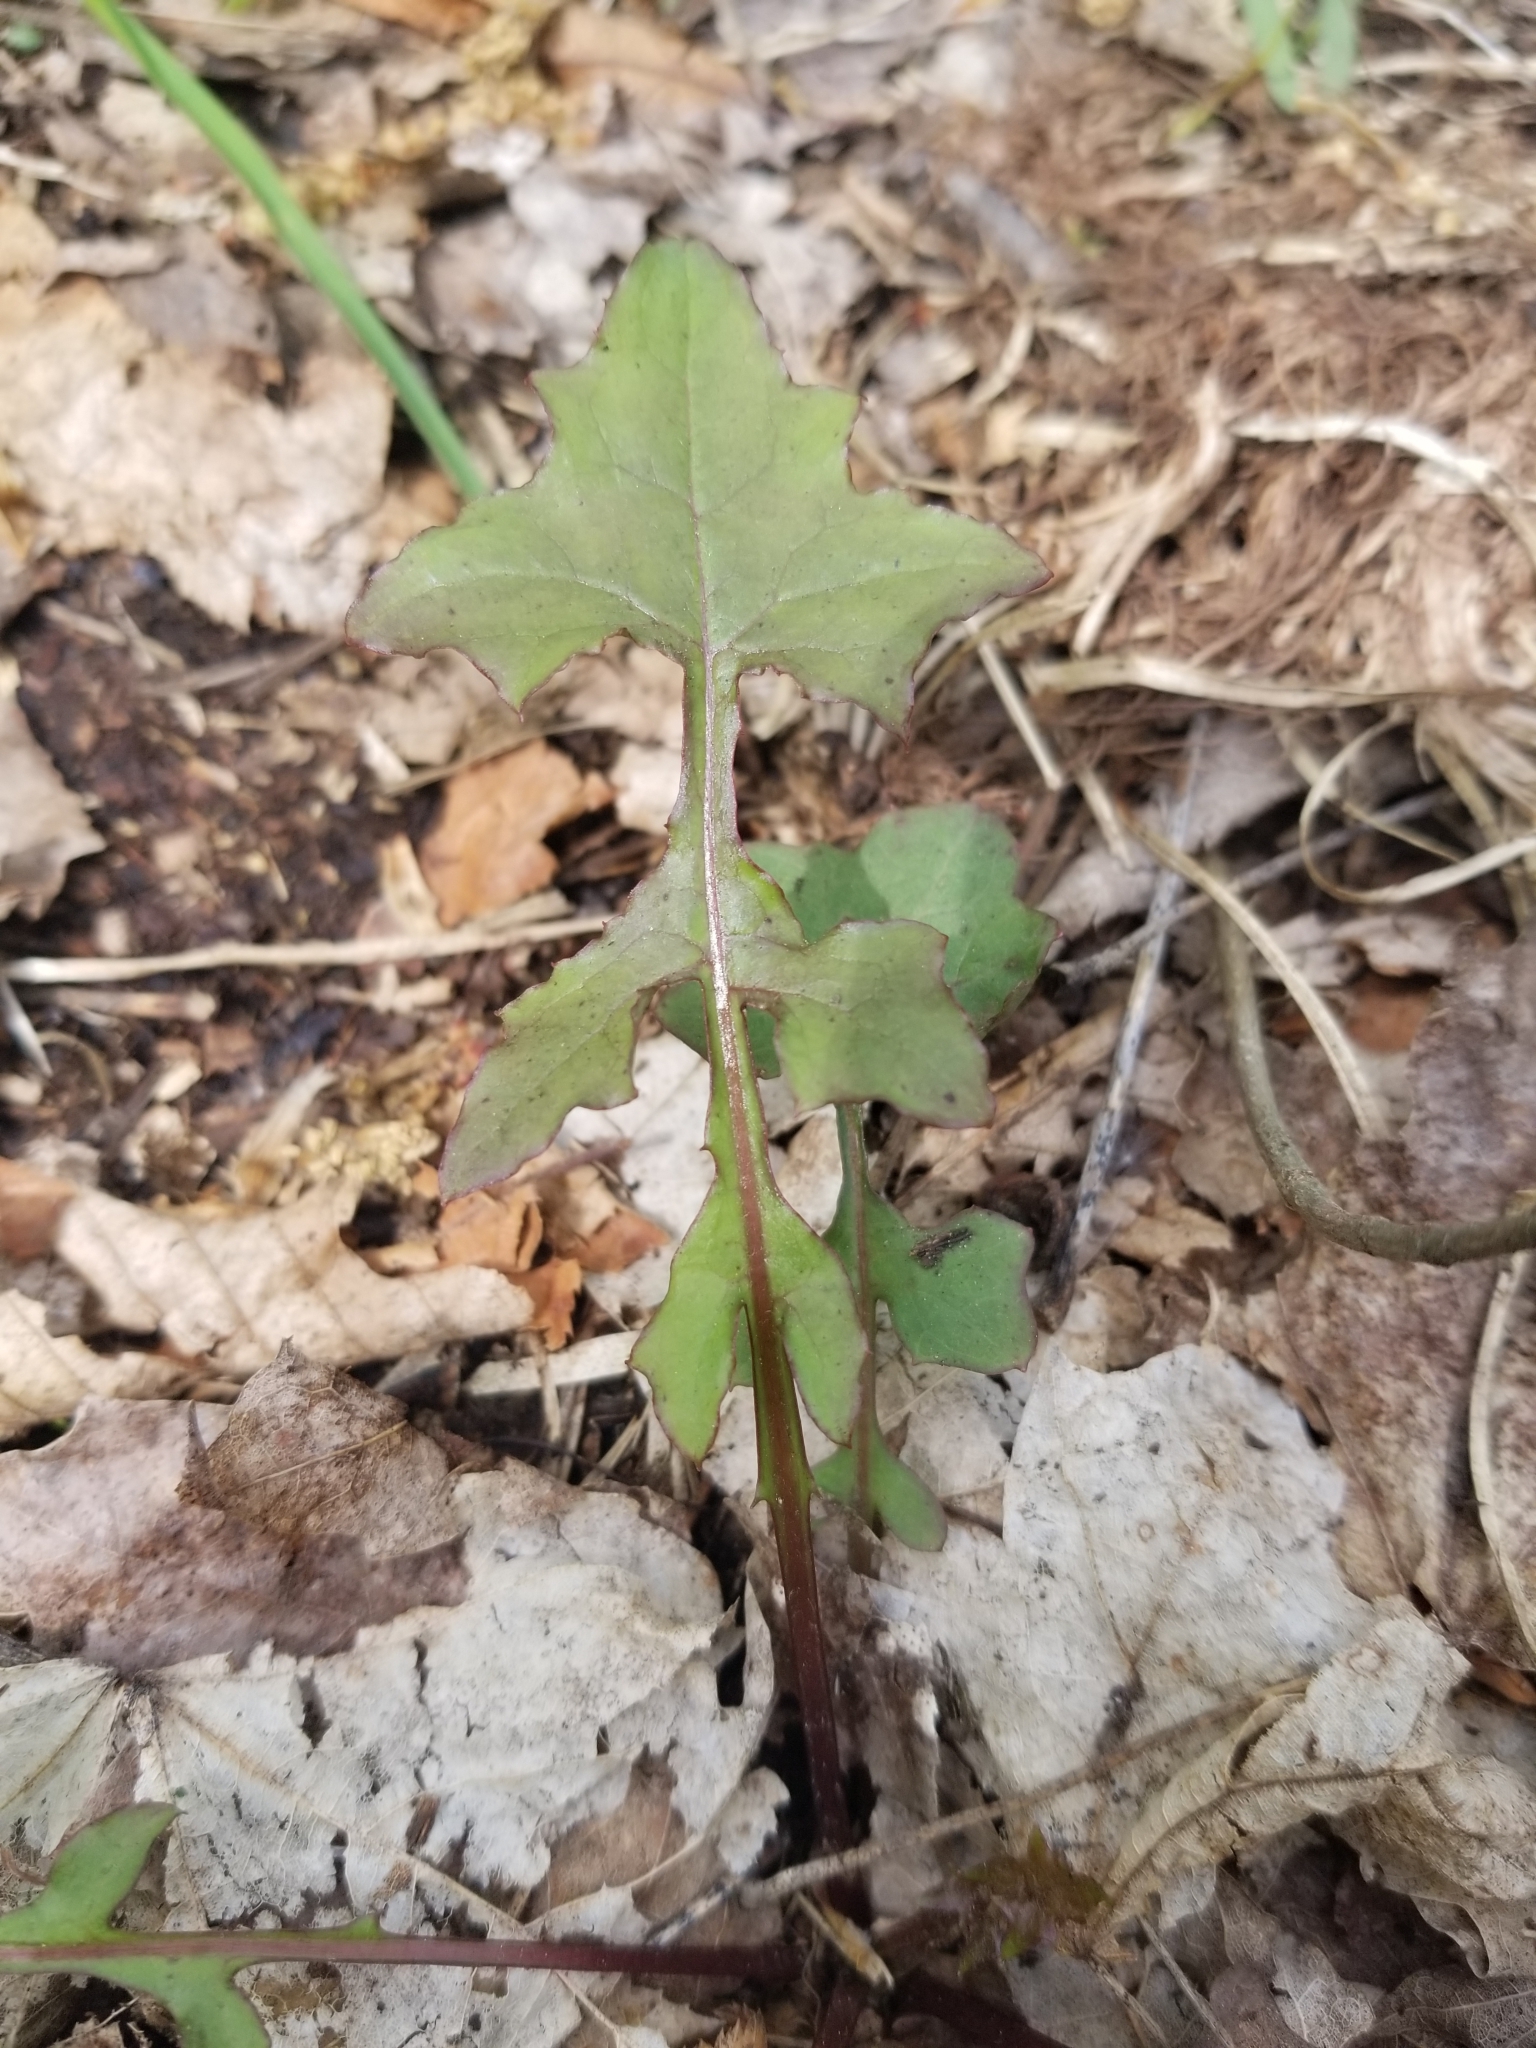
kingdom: Plantae
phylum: Tracheophyta
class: Magnoliopsida
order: Asterales
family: Asteraceae
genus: Mycelis
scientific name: Mycelis muralis
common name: Wall lettuce
